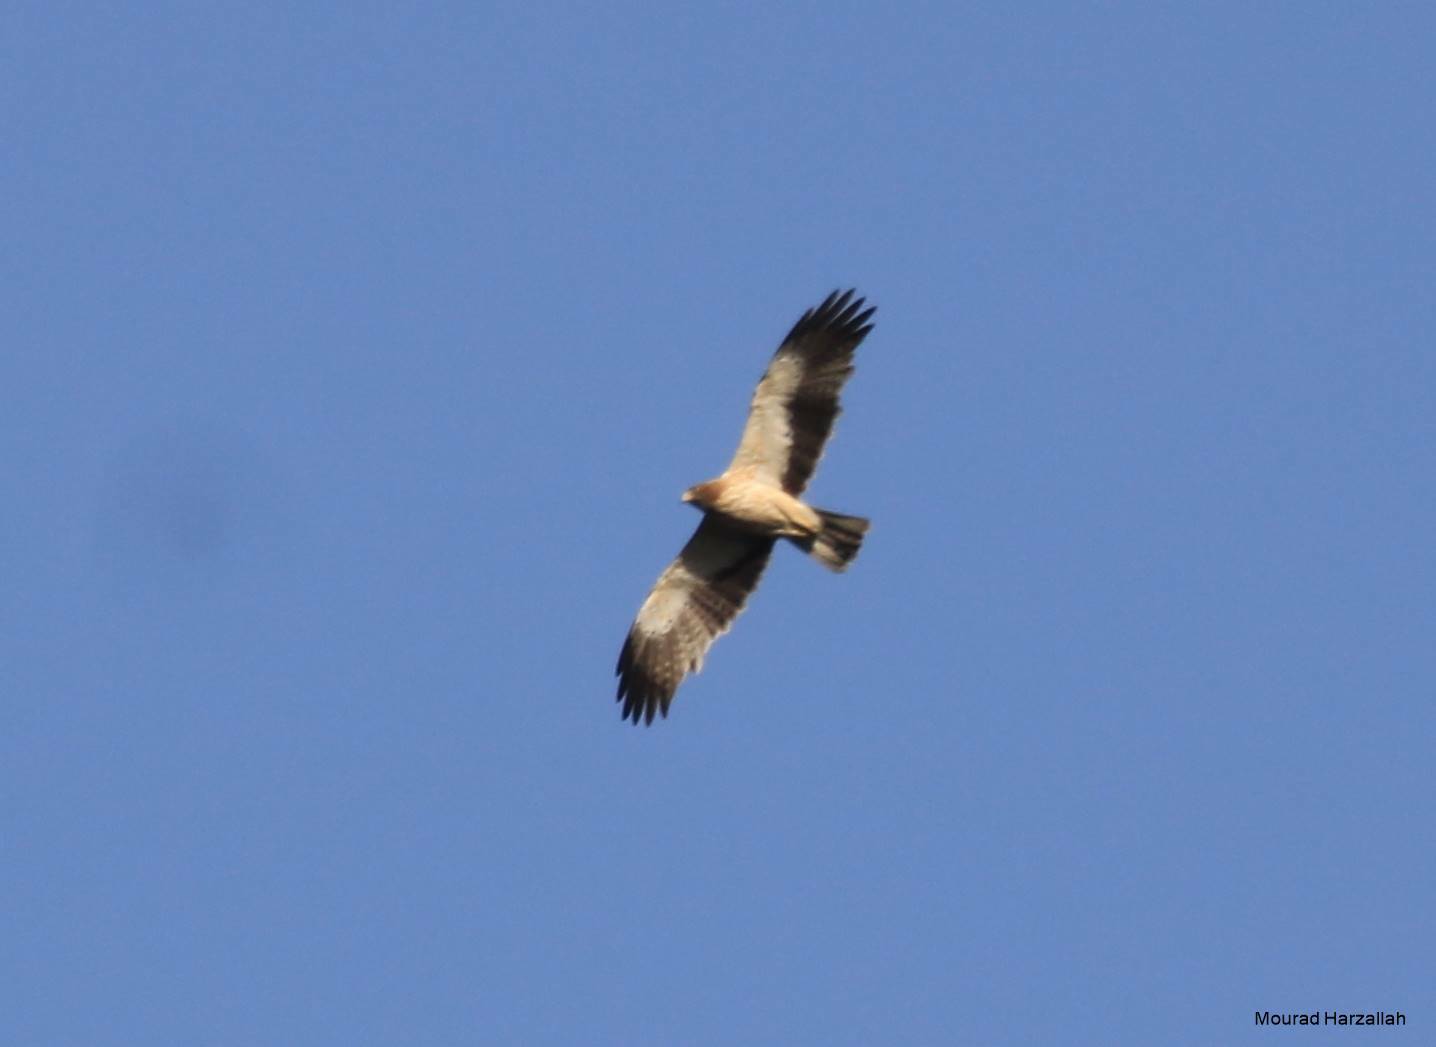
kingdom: Animalia
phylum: Chordata
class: Aves
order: Accipitriformes
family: Accipitridae
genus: Hieraaetus
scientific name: Hieraaetus pennatus
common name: Booted eagle
